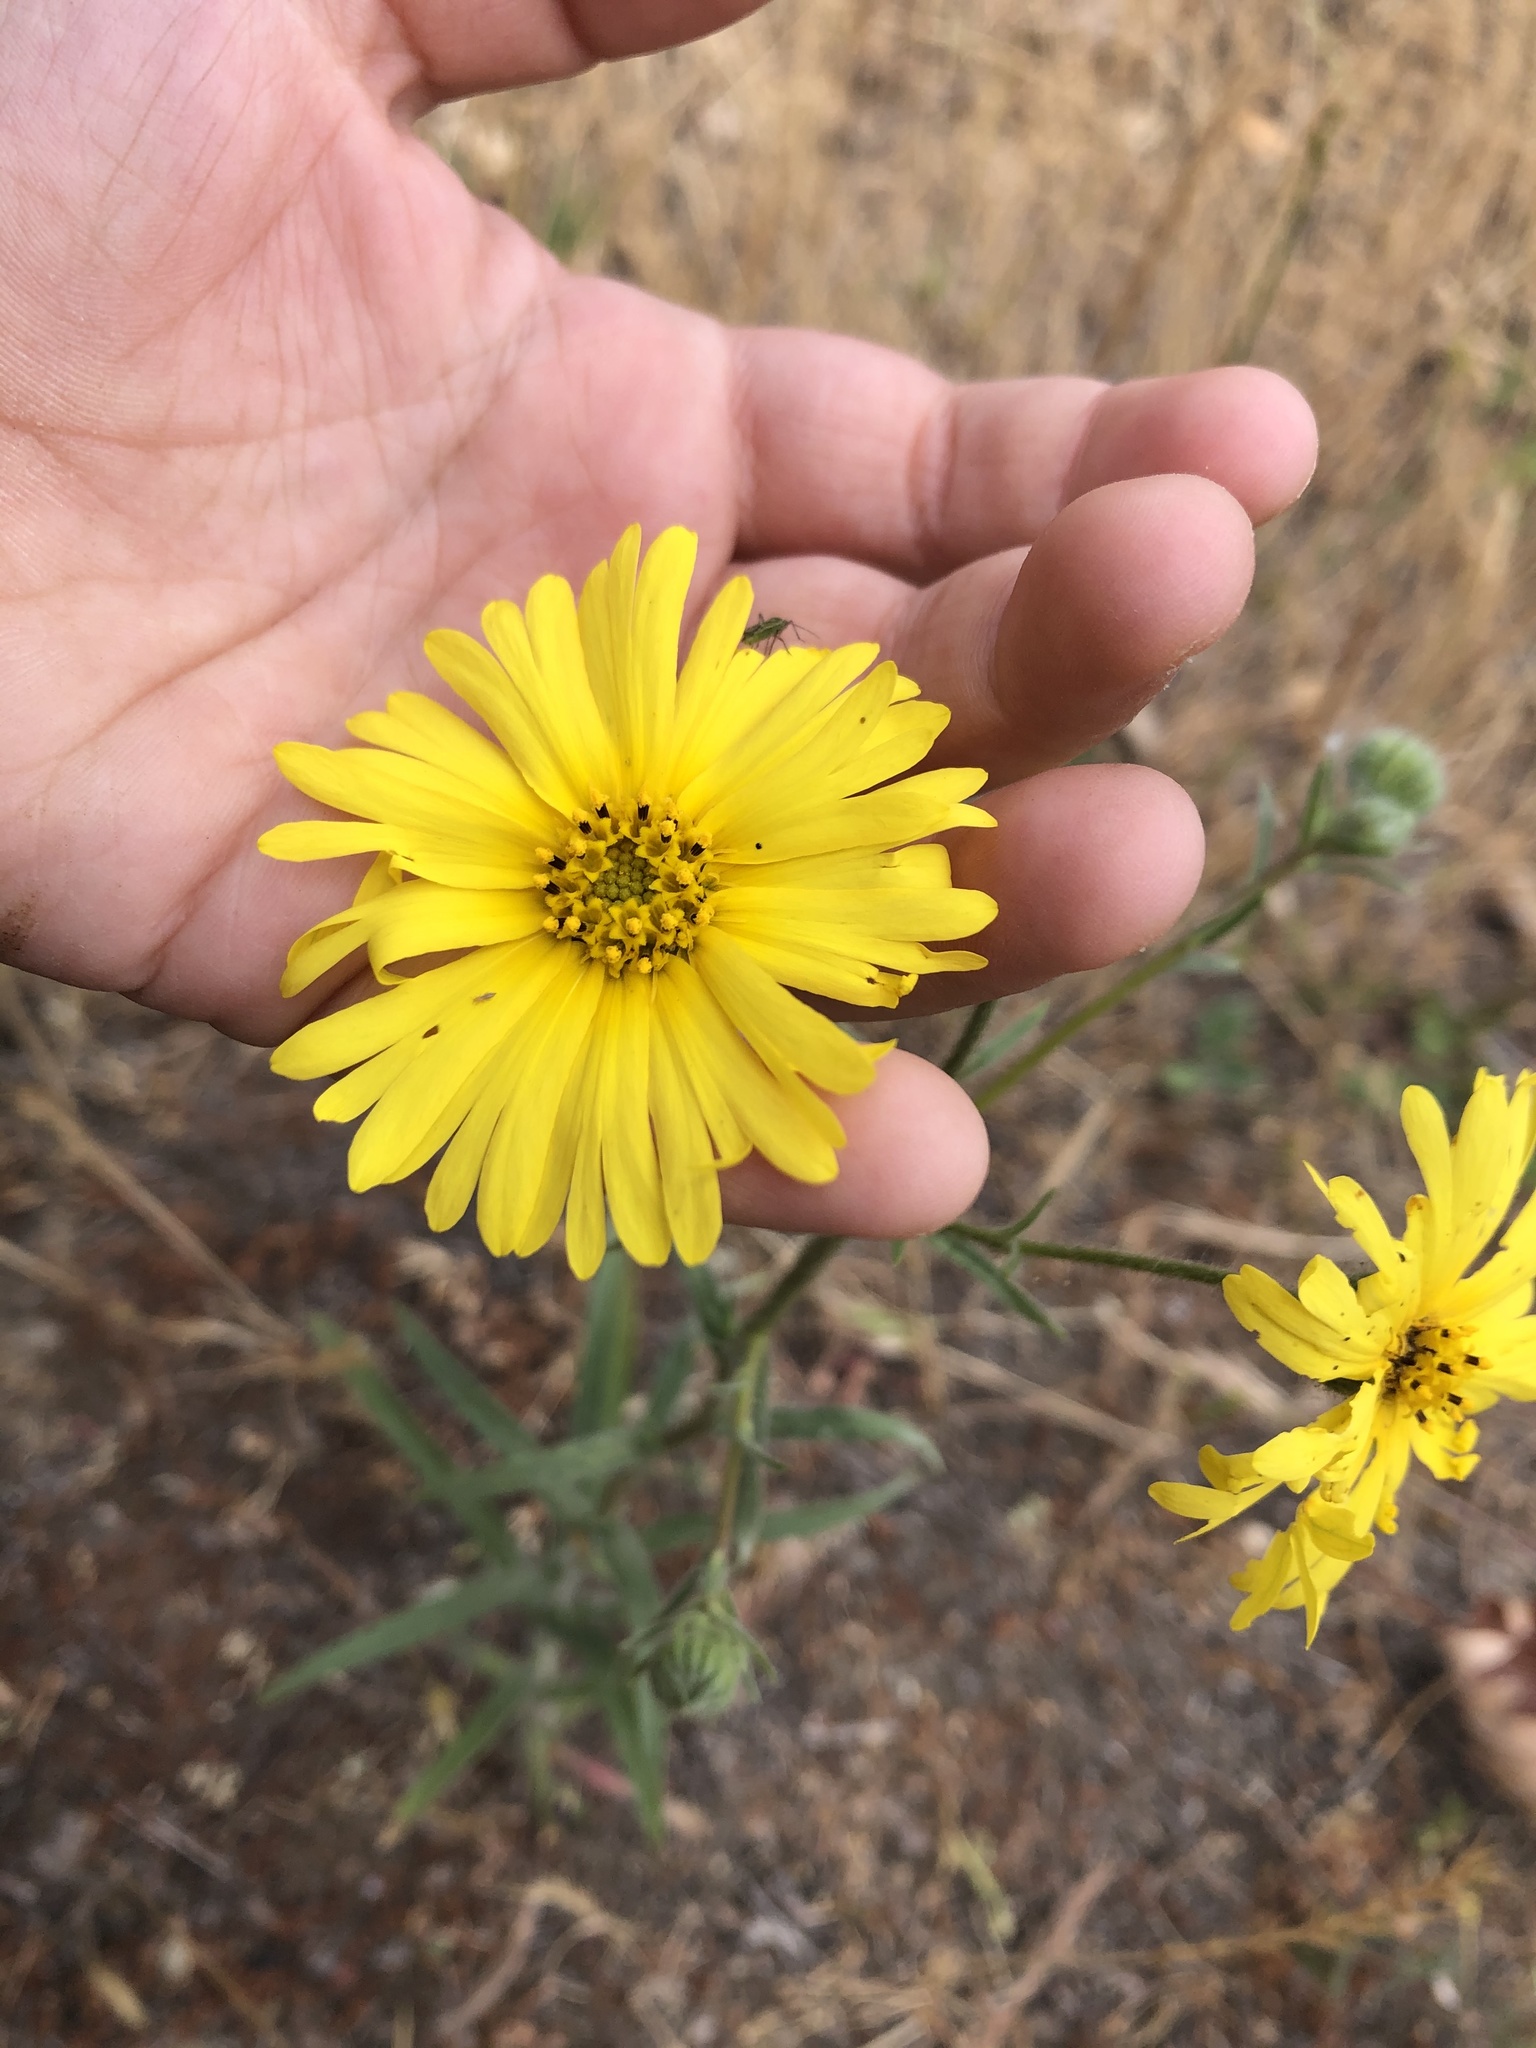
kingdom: Plantae
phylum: Tracheophyta
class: Magnoliopsida
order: Asterales
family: Asteraceae
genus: Madia
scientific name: Madia elegans
